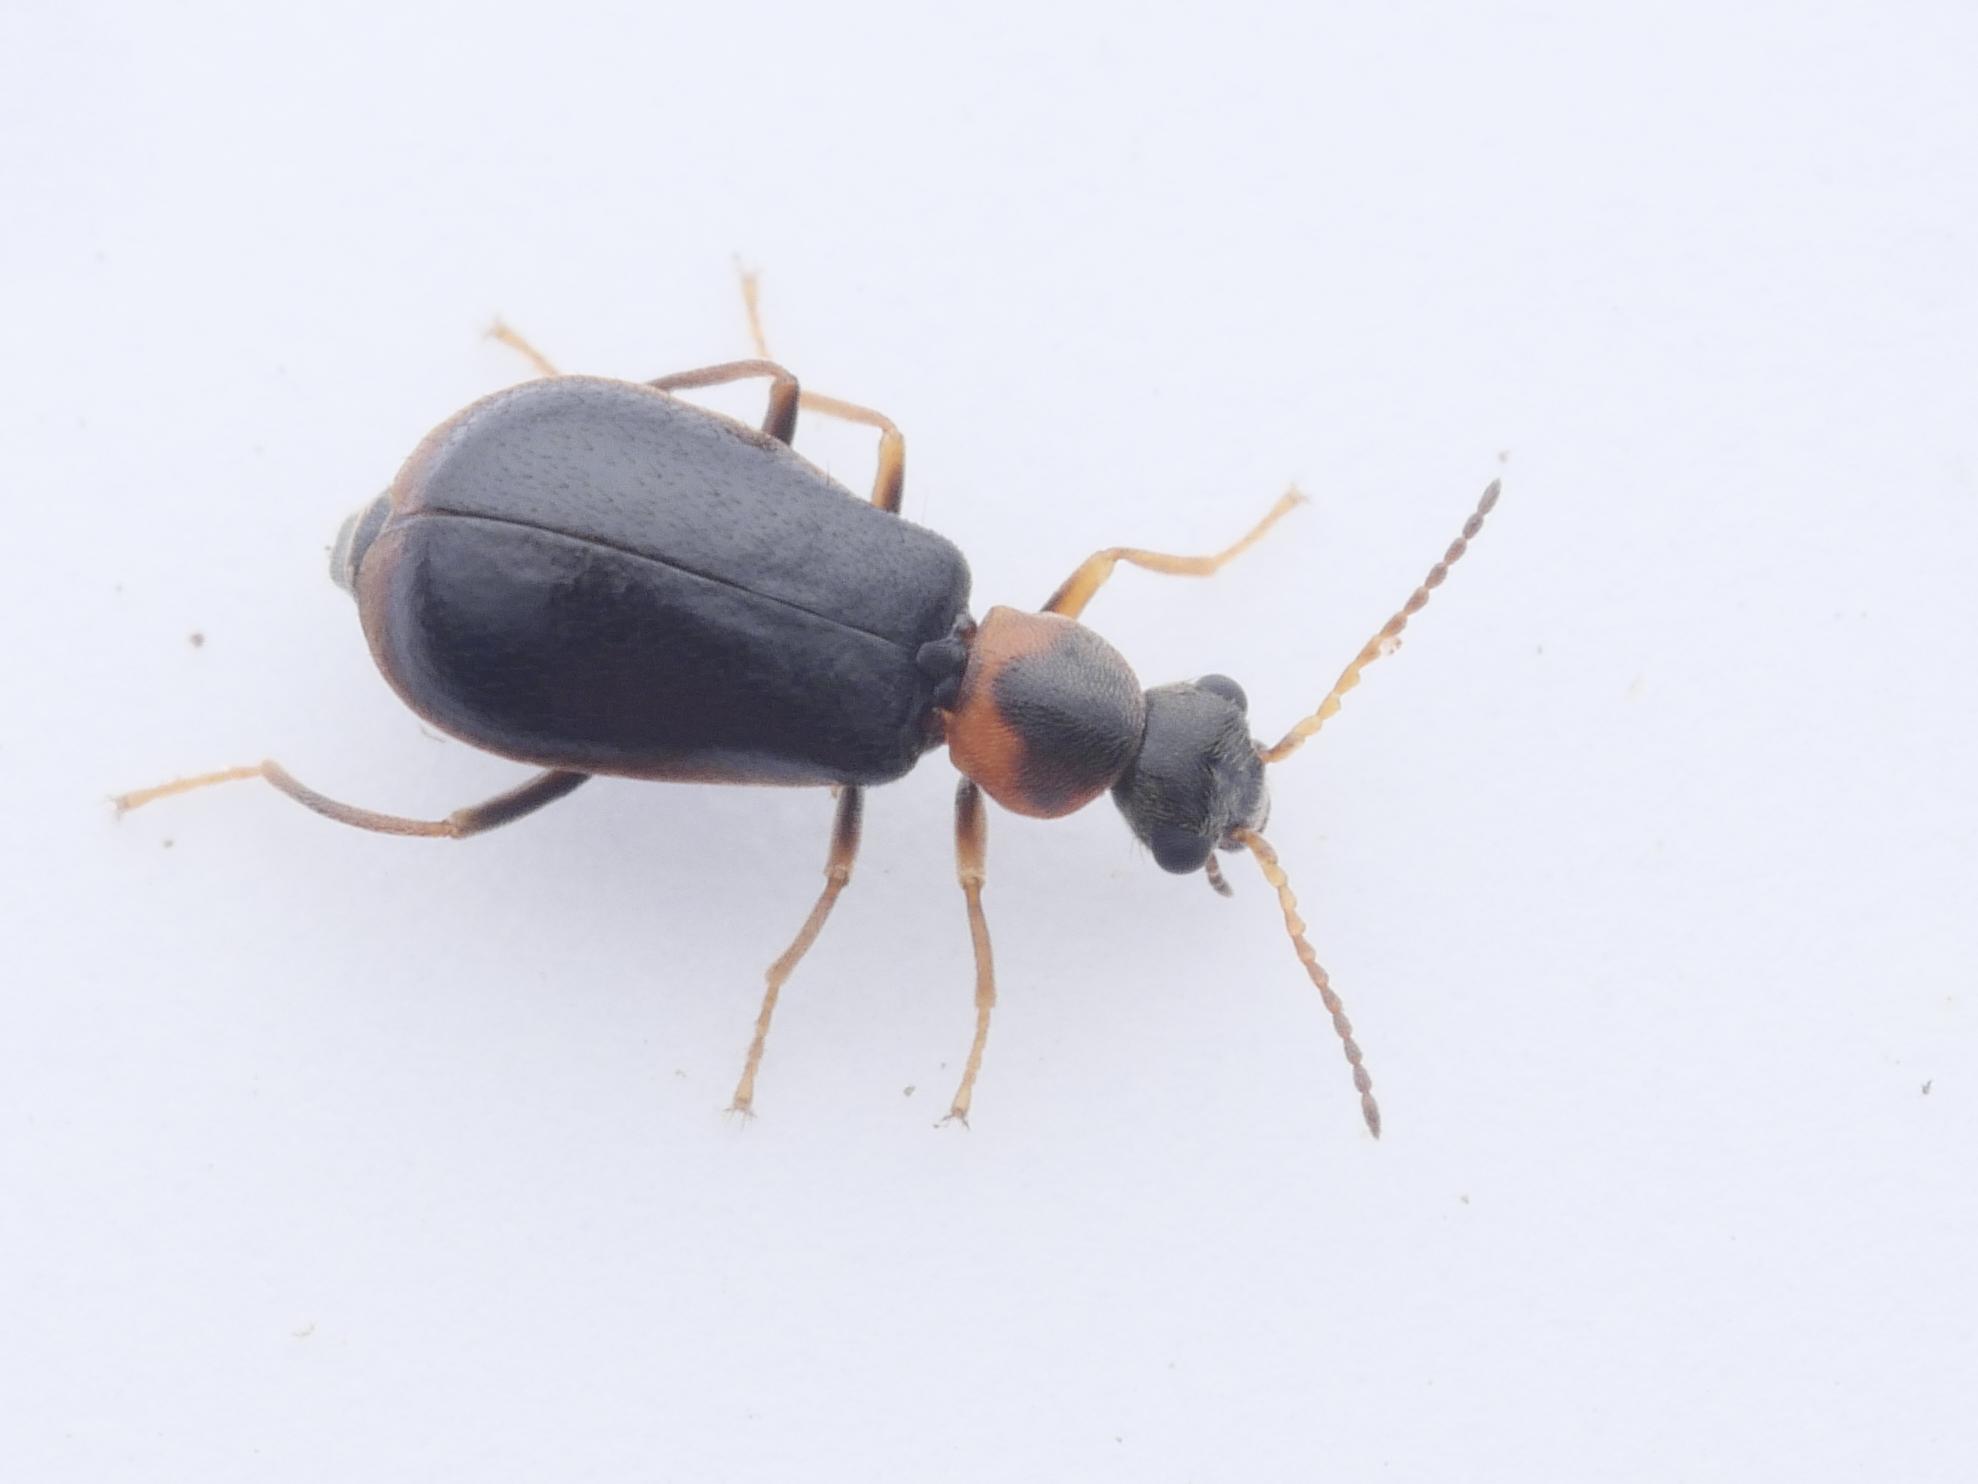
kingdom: Animalia
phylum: Arthropoda
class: Insecta
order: Coleoptera
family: Malachiidae
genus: Attalus
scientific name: Attalus analis
